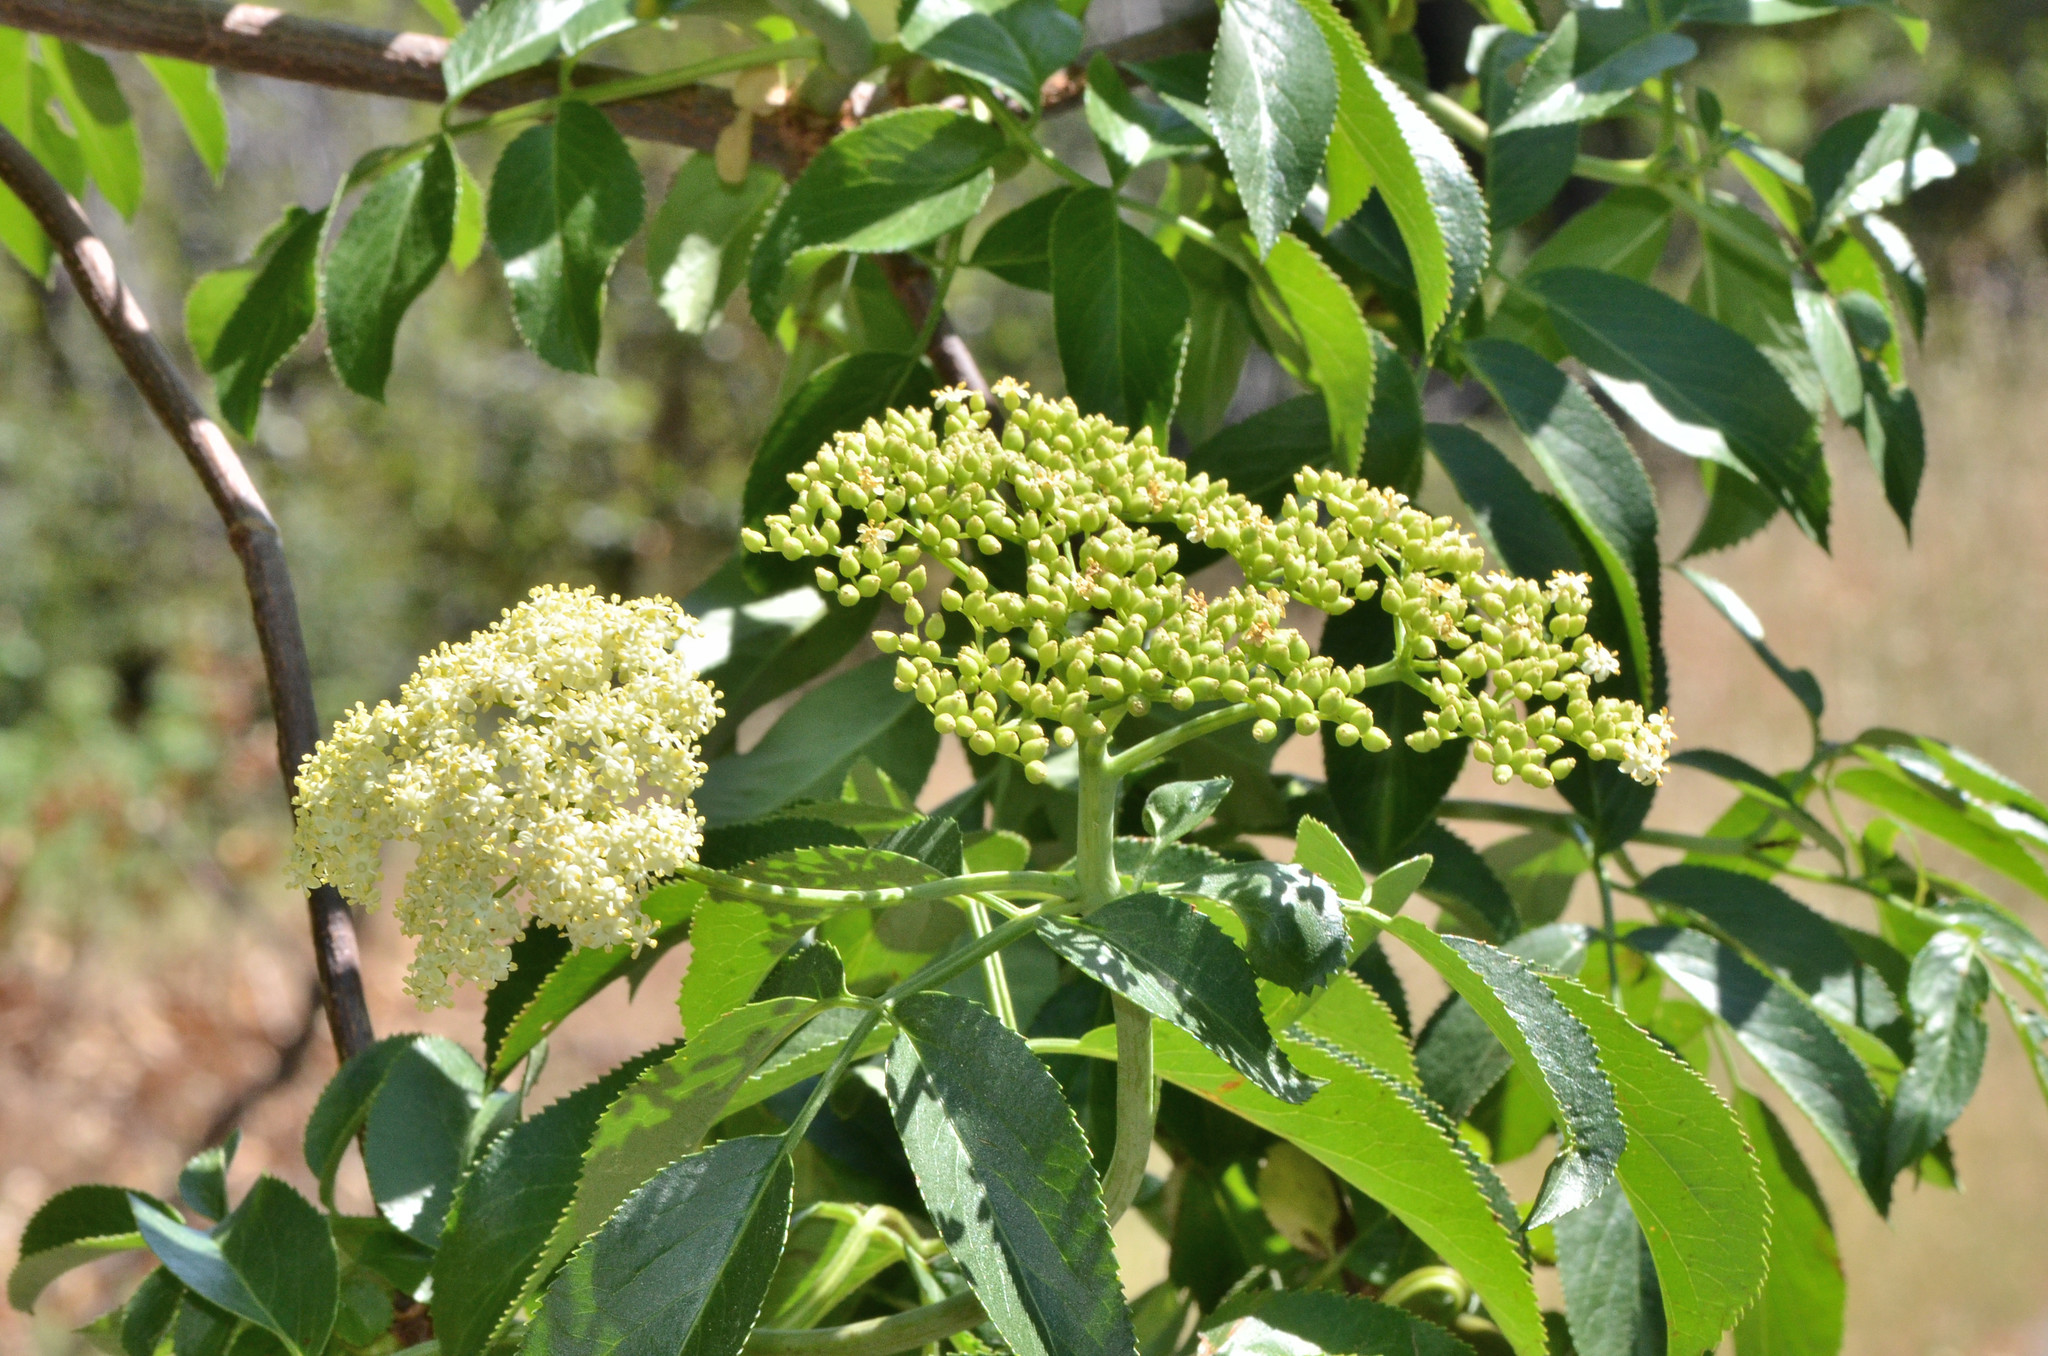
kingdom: Plantae
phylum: Tracheophyta
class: Magnoliopsida
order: Dipsacales
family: Viburnaceae
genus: Sambucus
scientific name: Sambucus cerulea
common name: Blue elder
